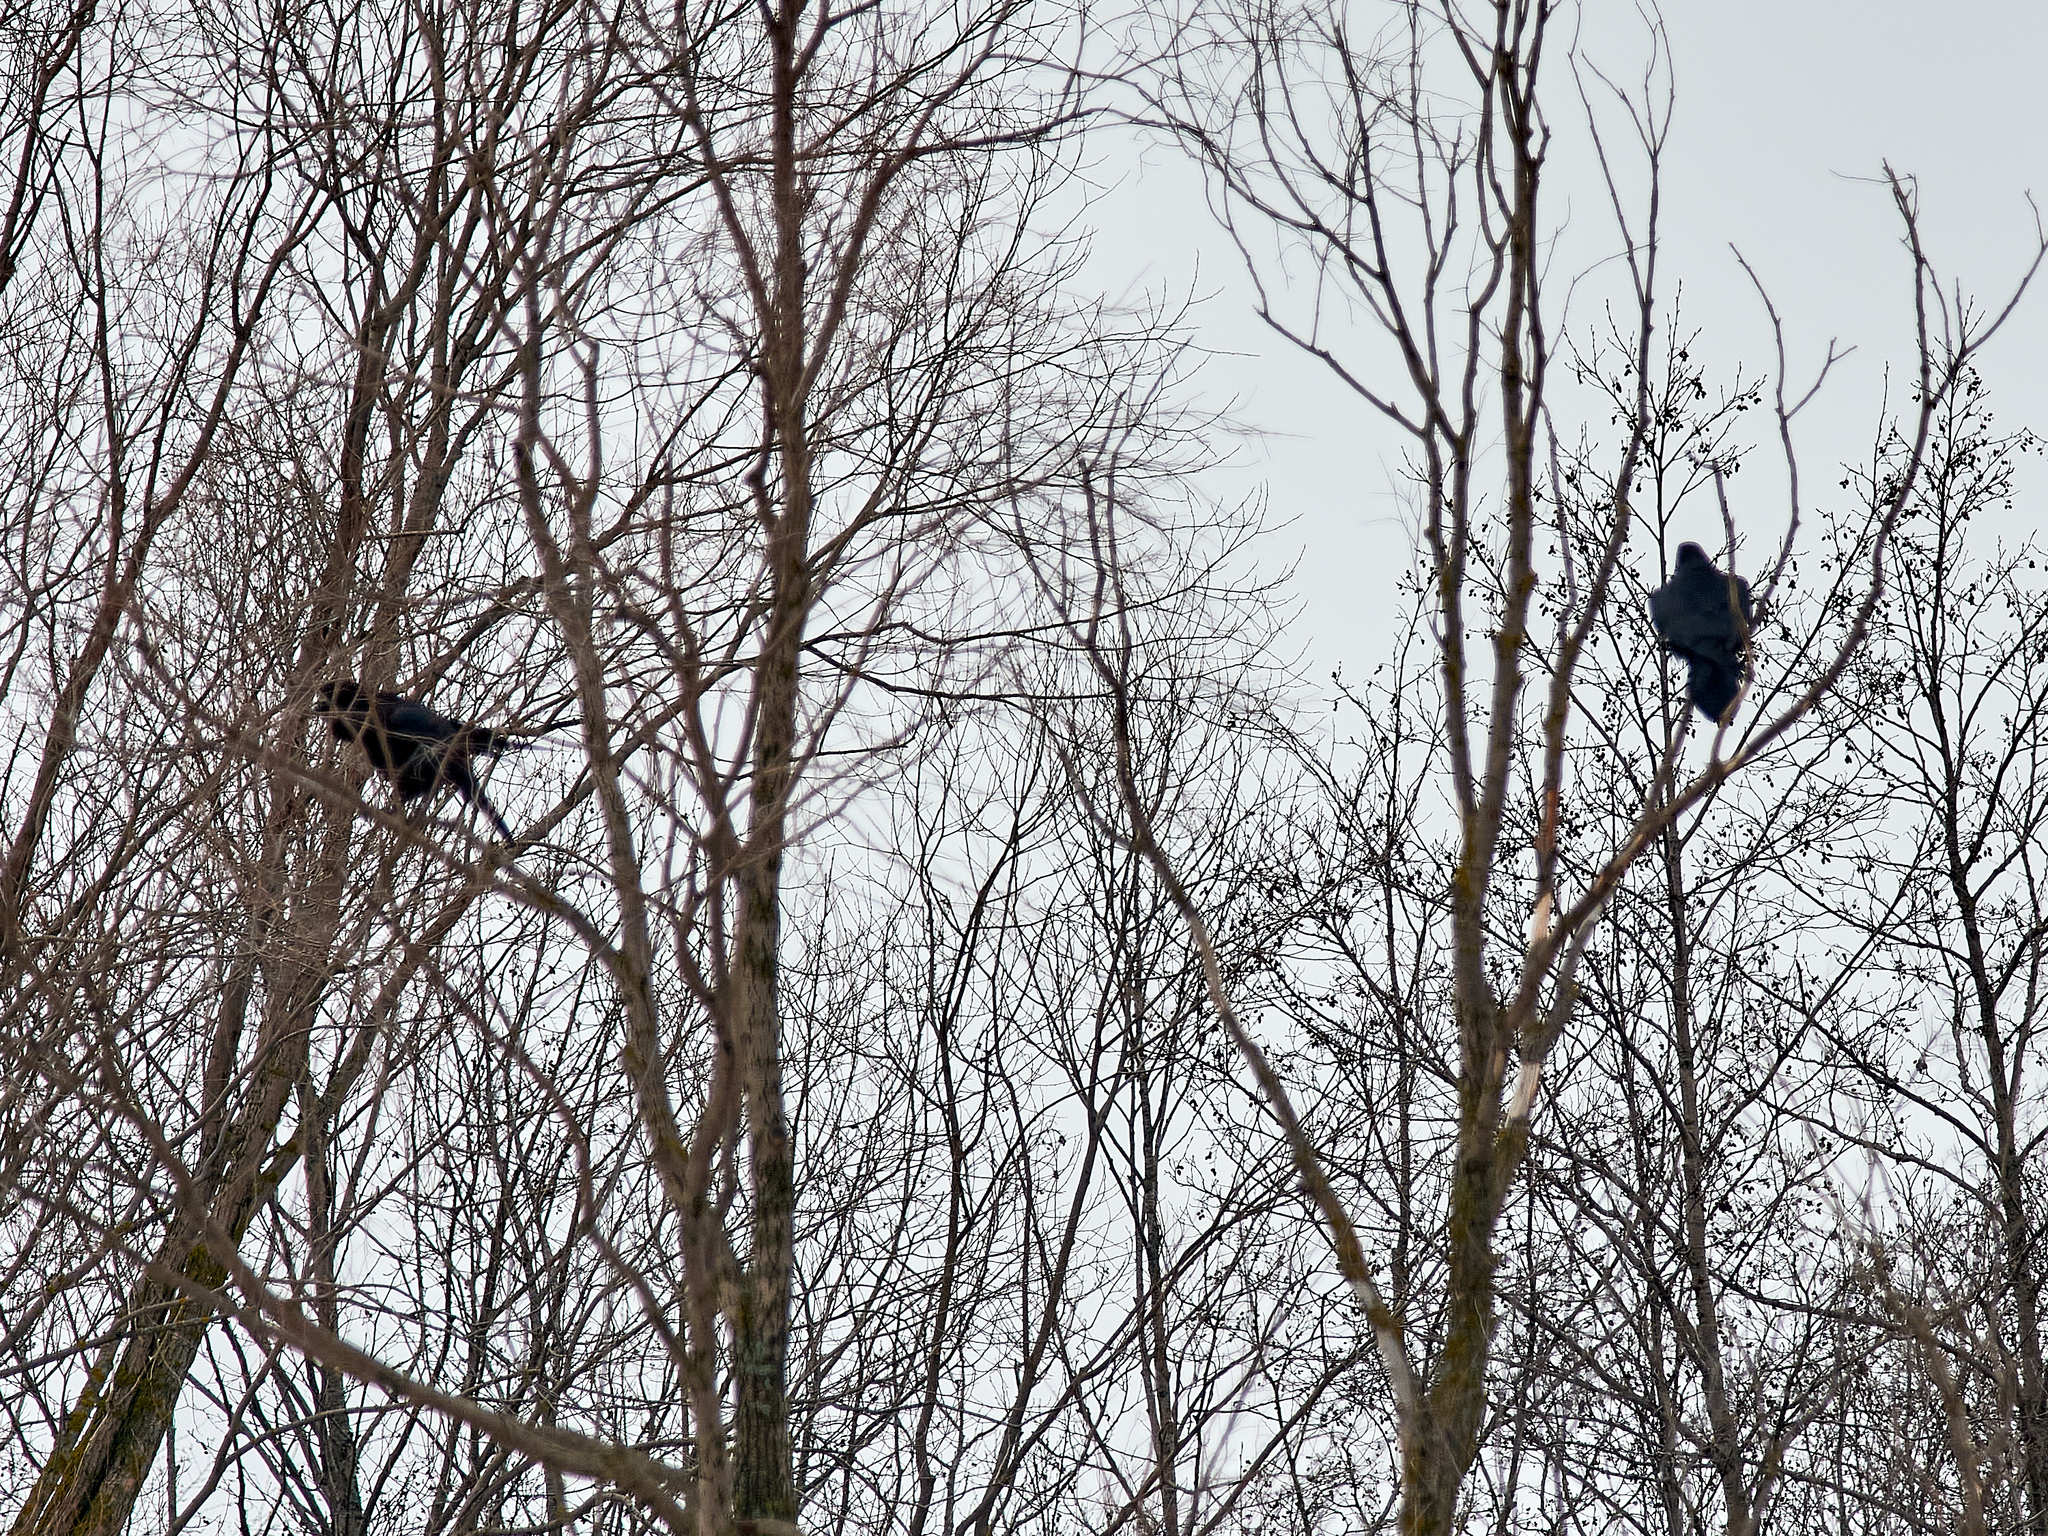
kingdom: Animalia
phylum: Chordata
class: Aves
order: Passeriformes
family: Corvidae
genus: Corvus
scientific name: Corvus corax
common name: Common raven
